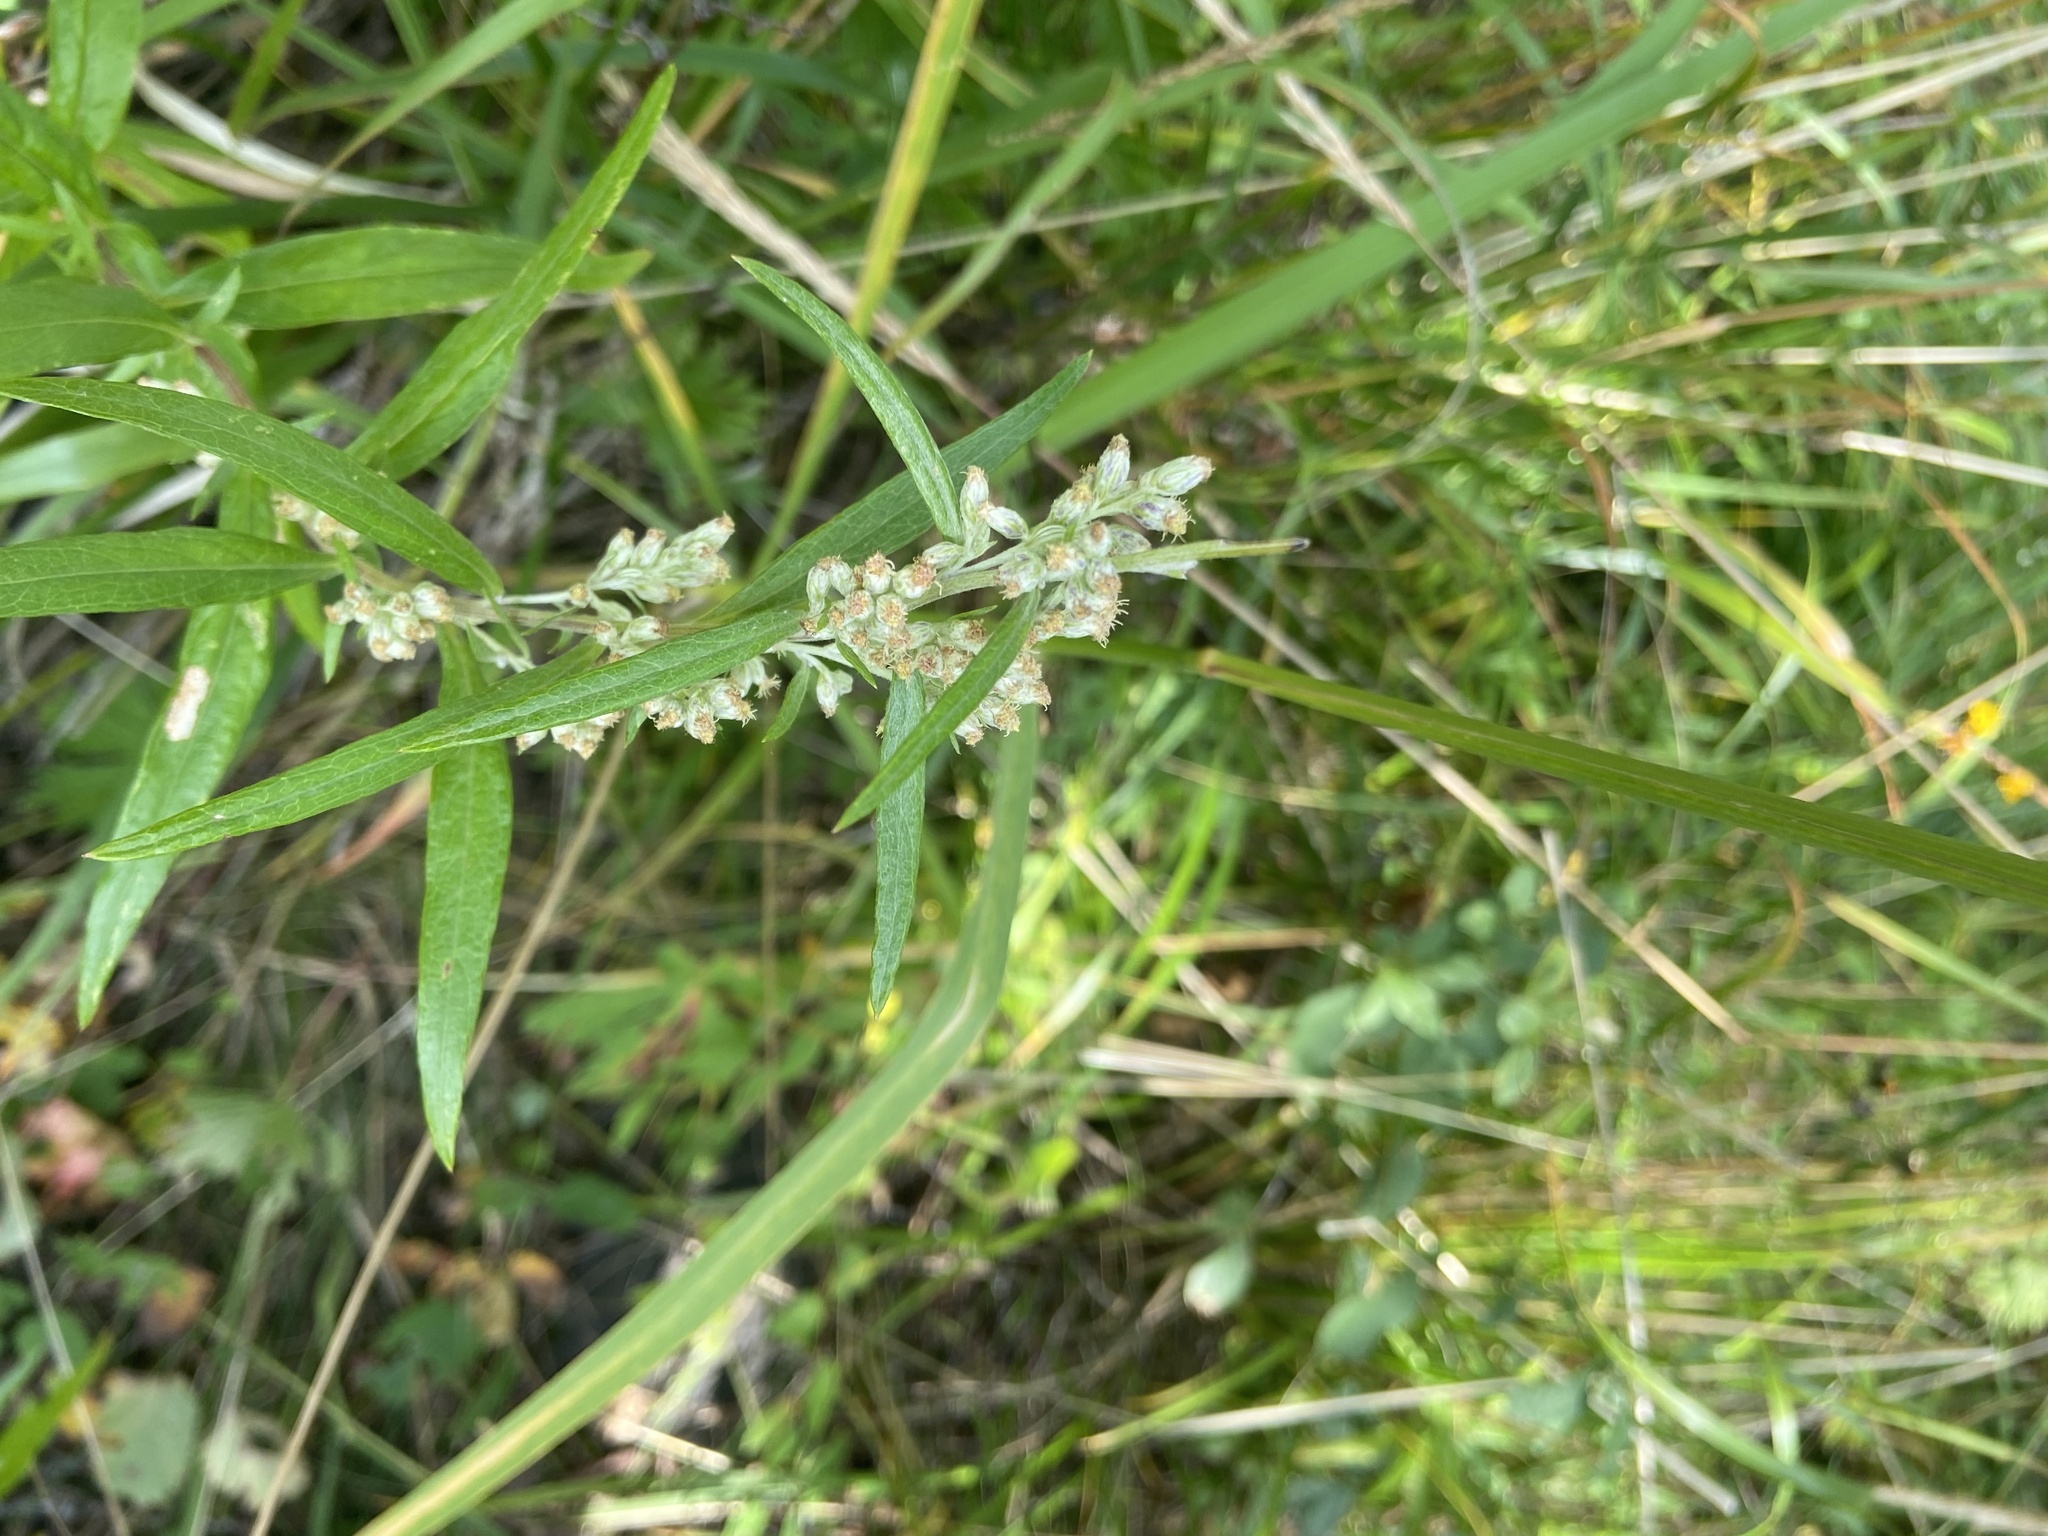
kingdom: Plantae
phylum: Tracheophyta
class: Magnoliopsida
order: Asterales
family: Asteraceae
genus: Artemisia
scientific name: Artemisia integrifolia
